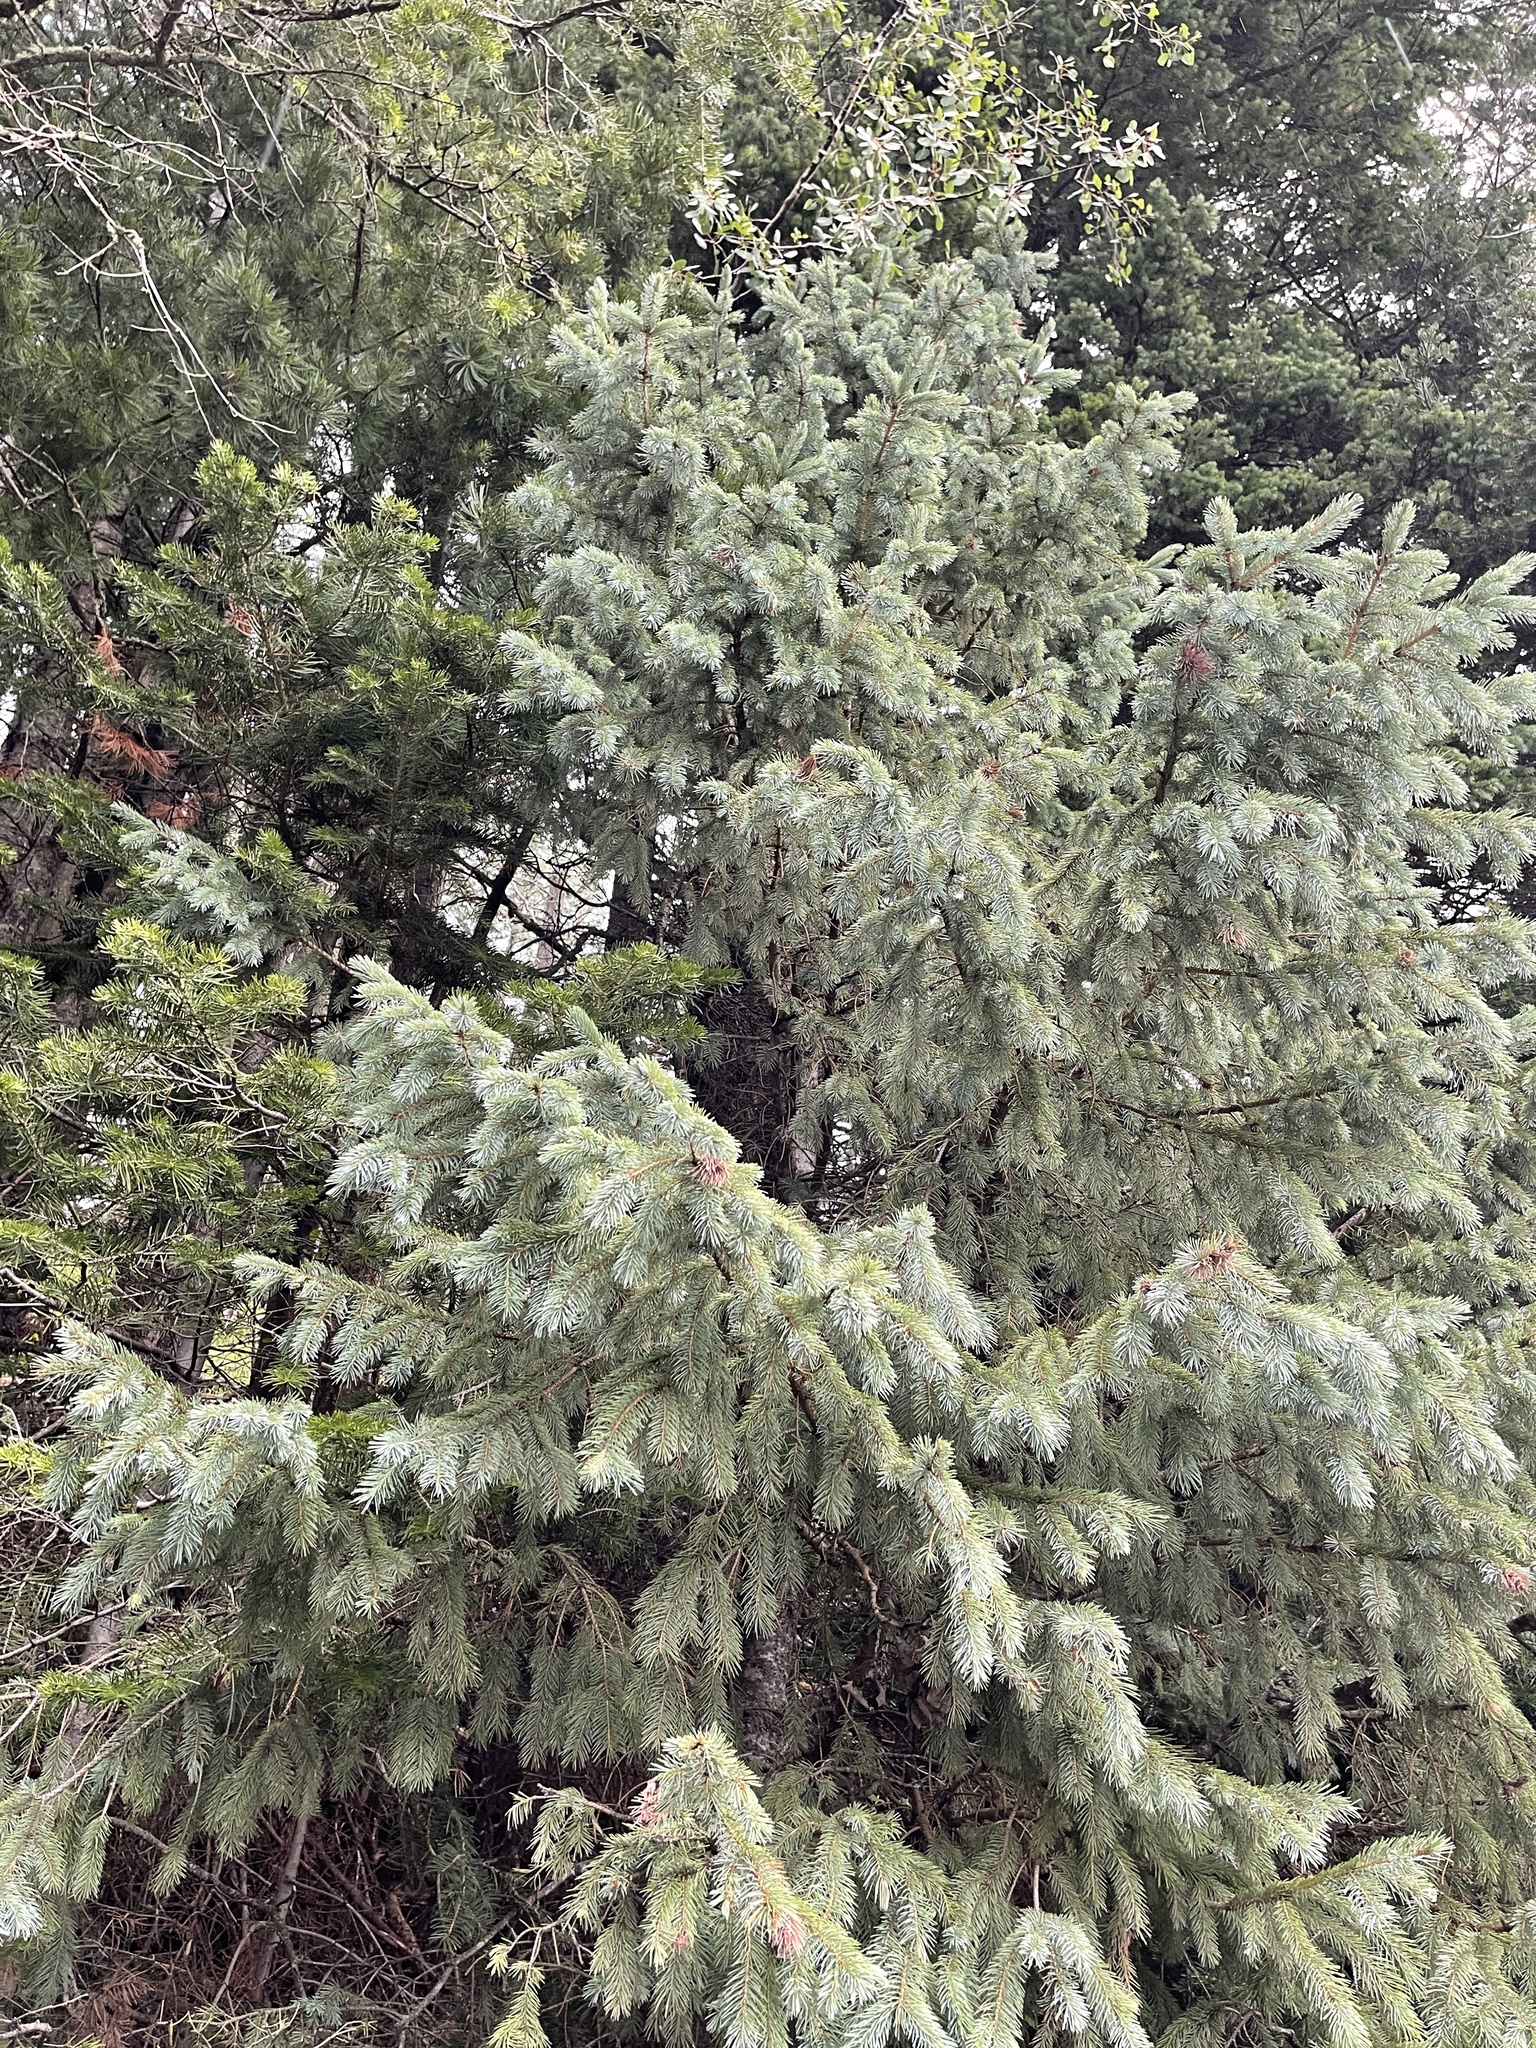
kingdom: Plantae
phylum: Tracheophyta
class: Pinopsida
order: Pinales
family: Pinaceae
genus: Picea
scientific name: Picea engelmannii
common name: Engelmann spruce
